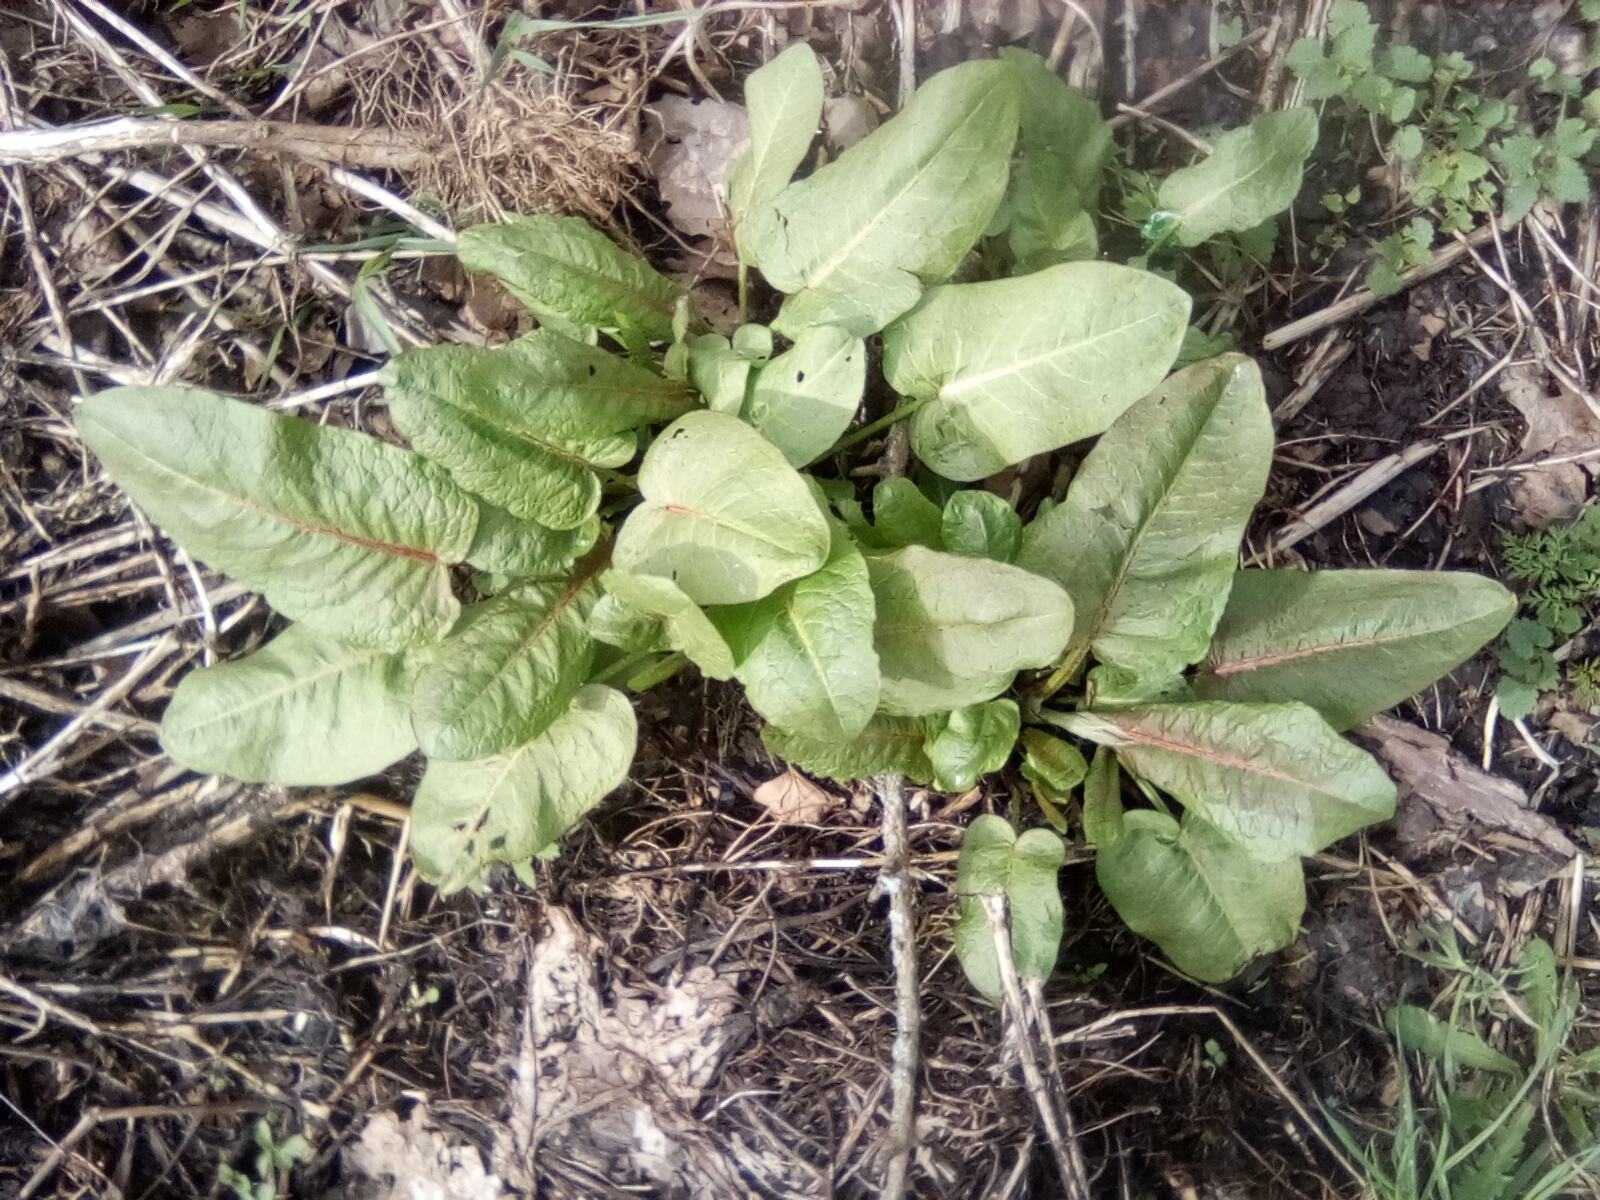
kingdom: Plantae
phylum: Tracheophyta
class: Magnoliopsida
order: Caryophyllales
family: Polygonaceae
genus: Rumex
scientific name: Rumex obtusifolius
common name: Bitter dock
